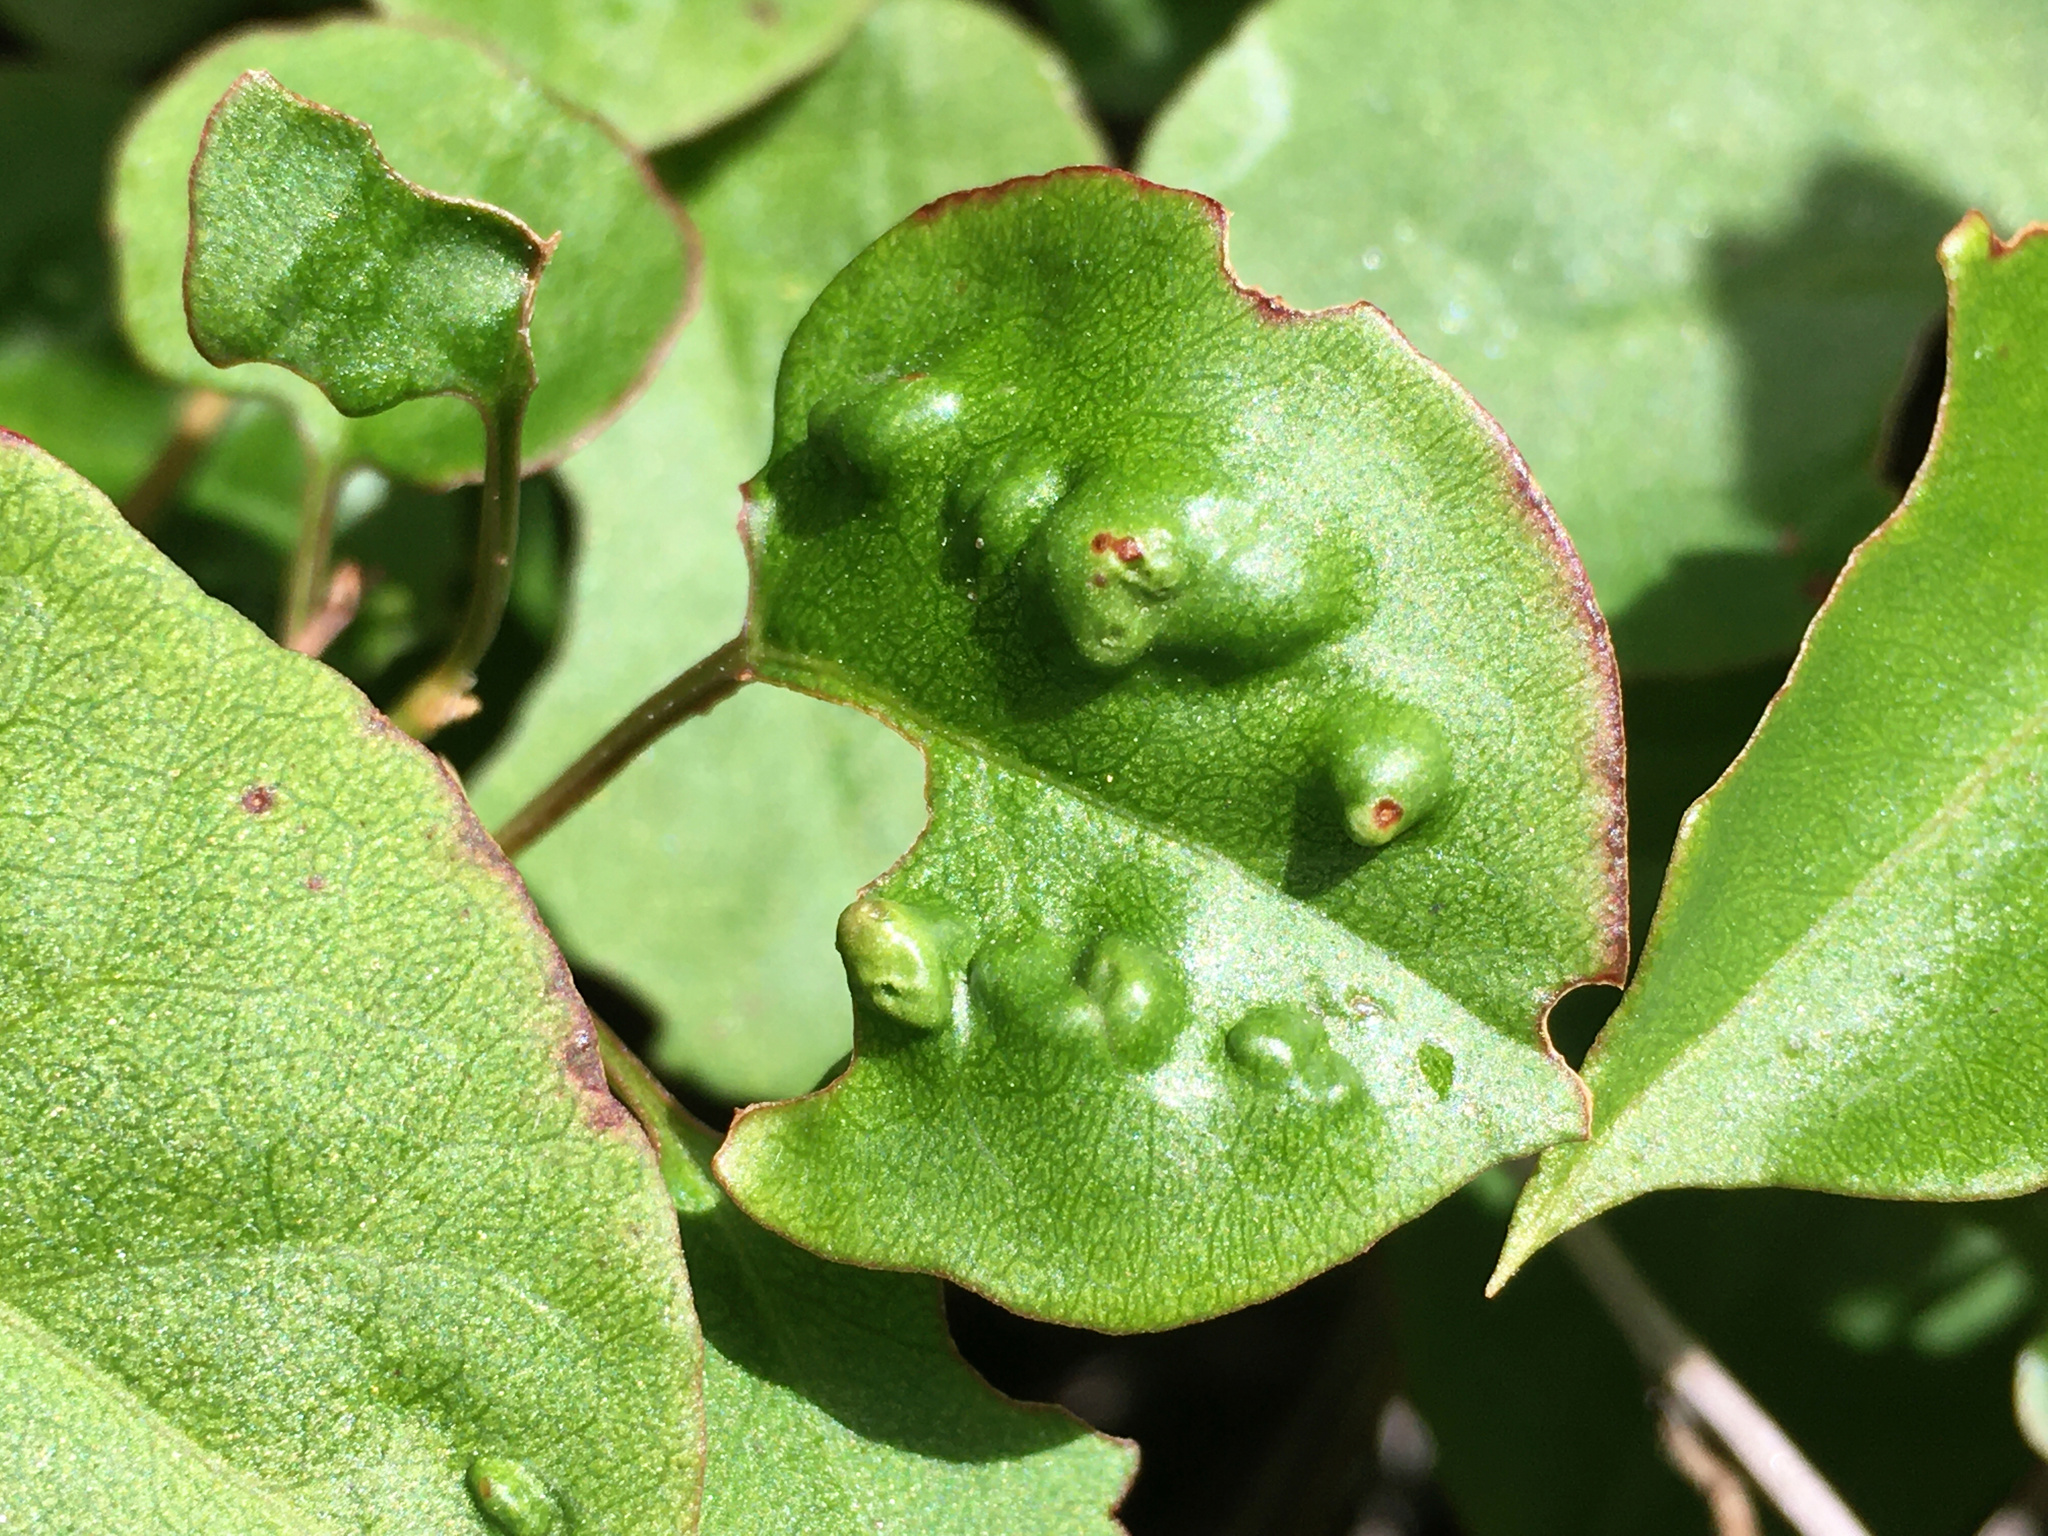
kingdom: Animalia
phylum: Arthropoda
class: Arachnida
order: Trombidiformes
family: Eriophyidae
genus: Aceria
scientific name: Aceria lamii
